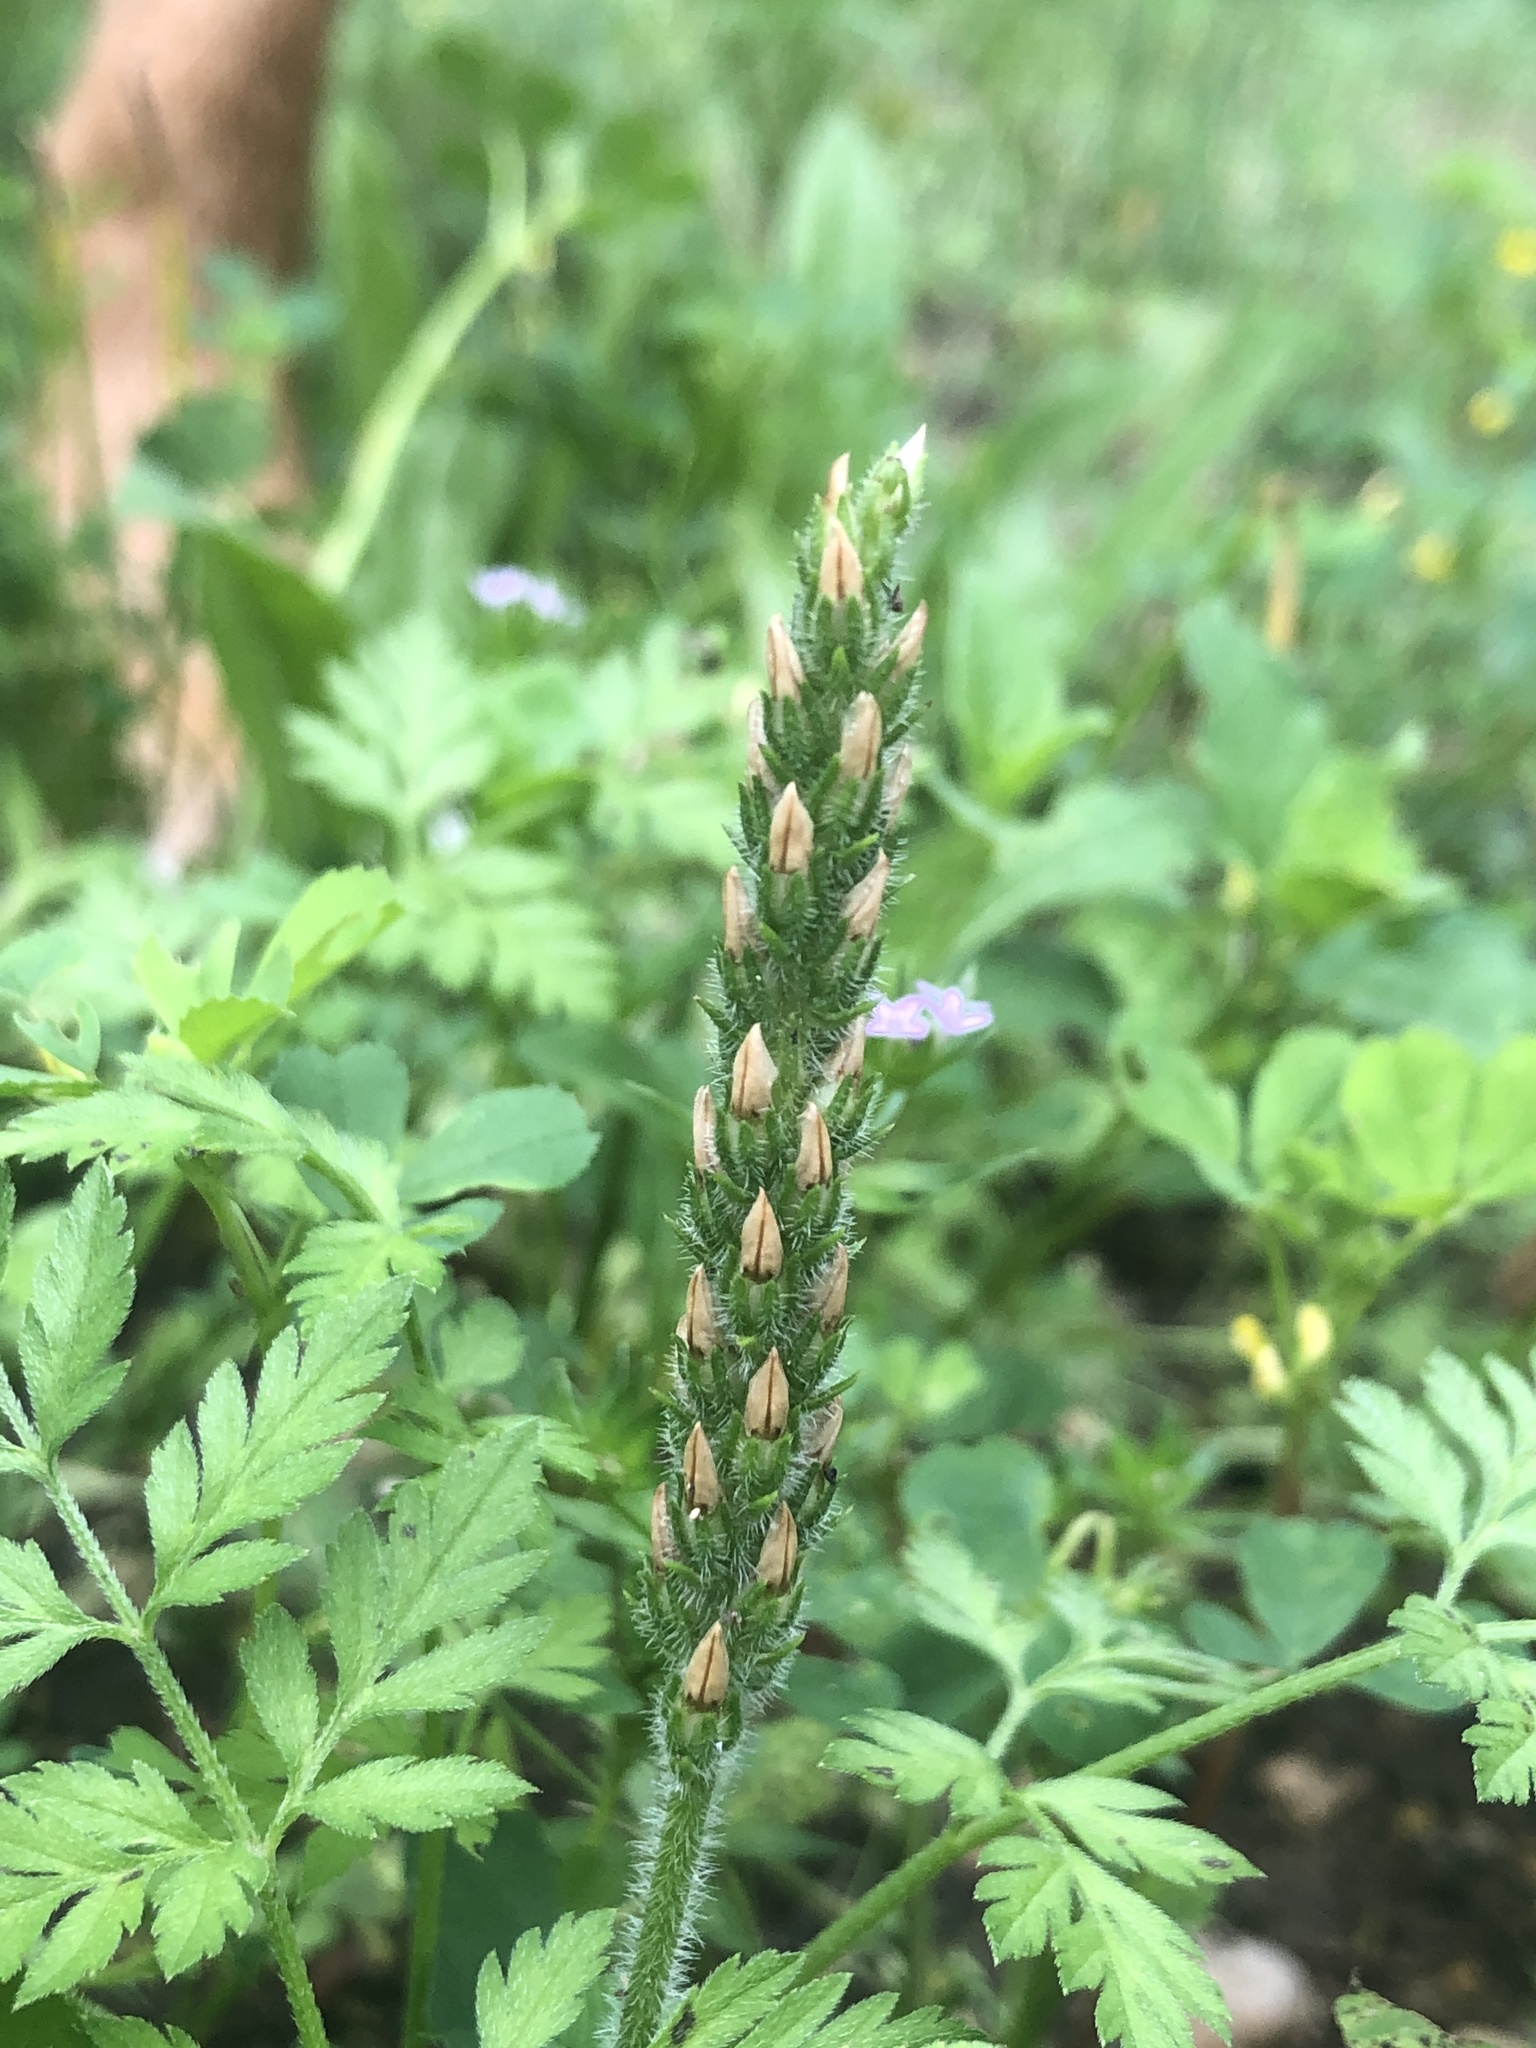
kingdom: Plantae
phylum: Tracheophyta
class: Magnoliopsida
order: Lamiales
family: Plantaginaceae
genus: Plantago
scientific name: Plantago rhodosperma
